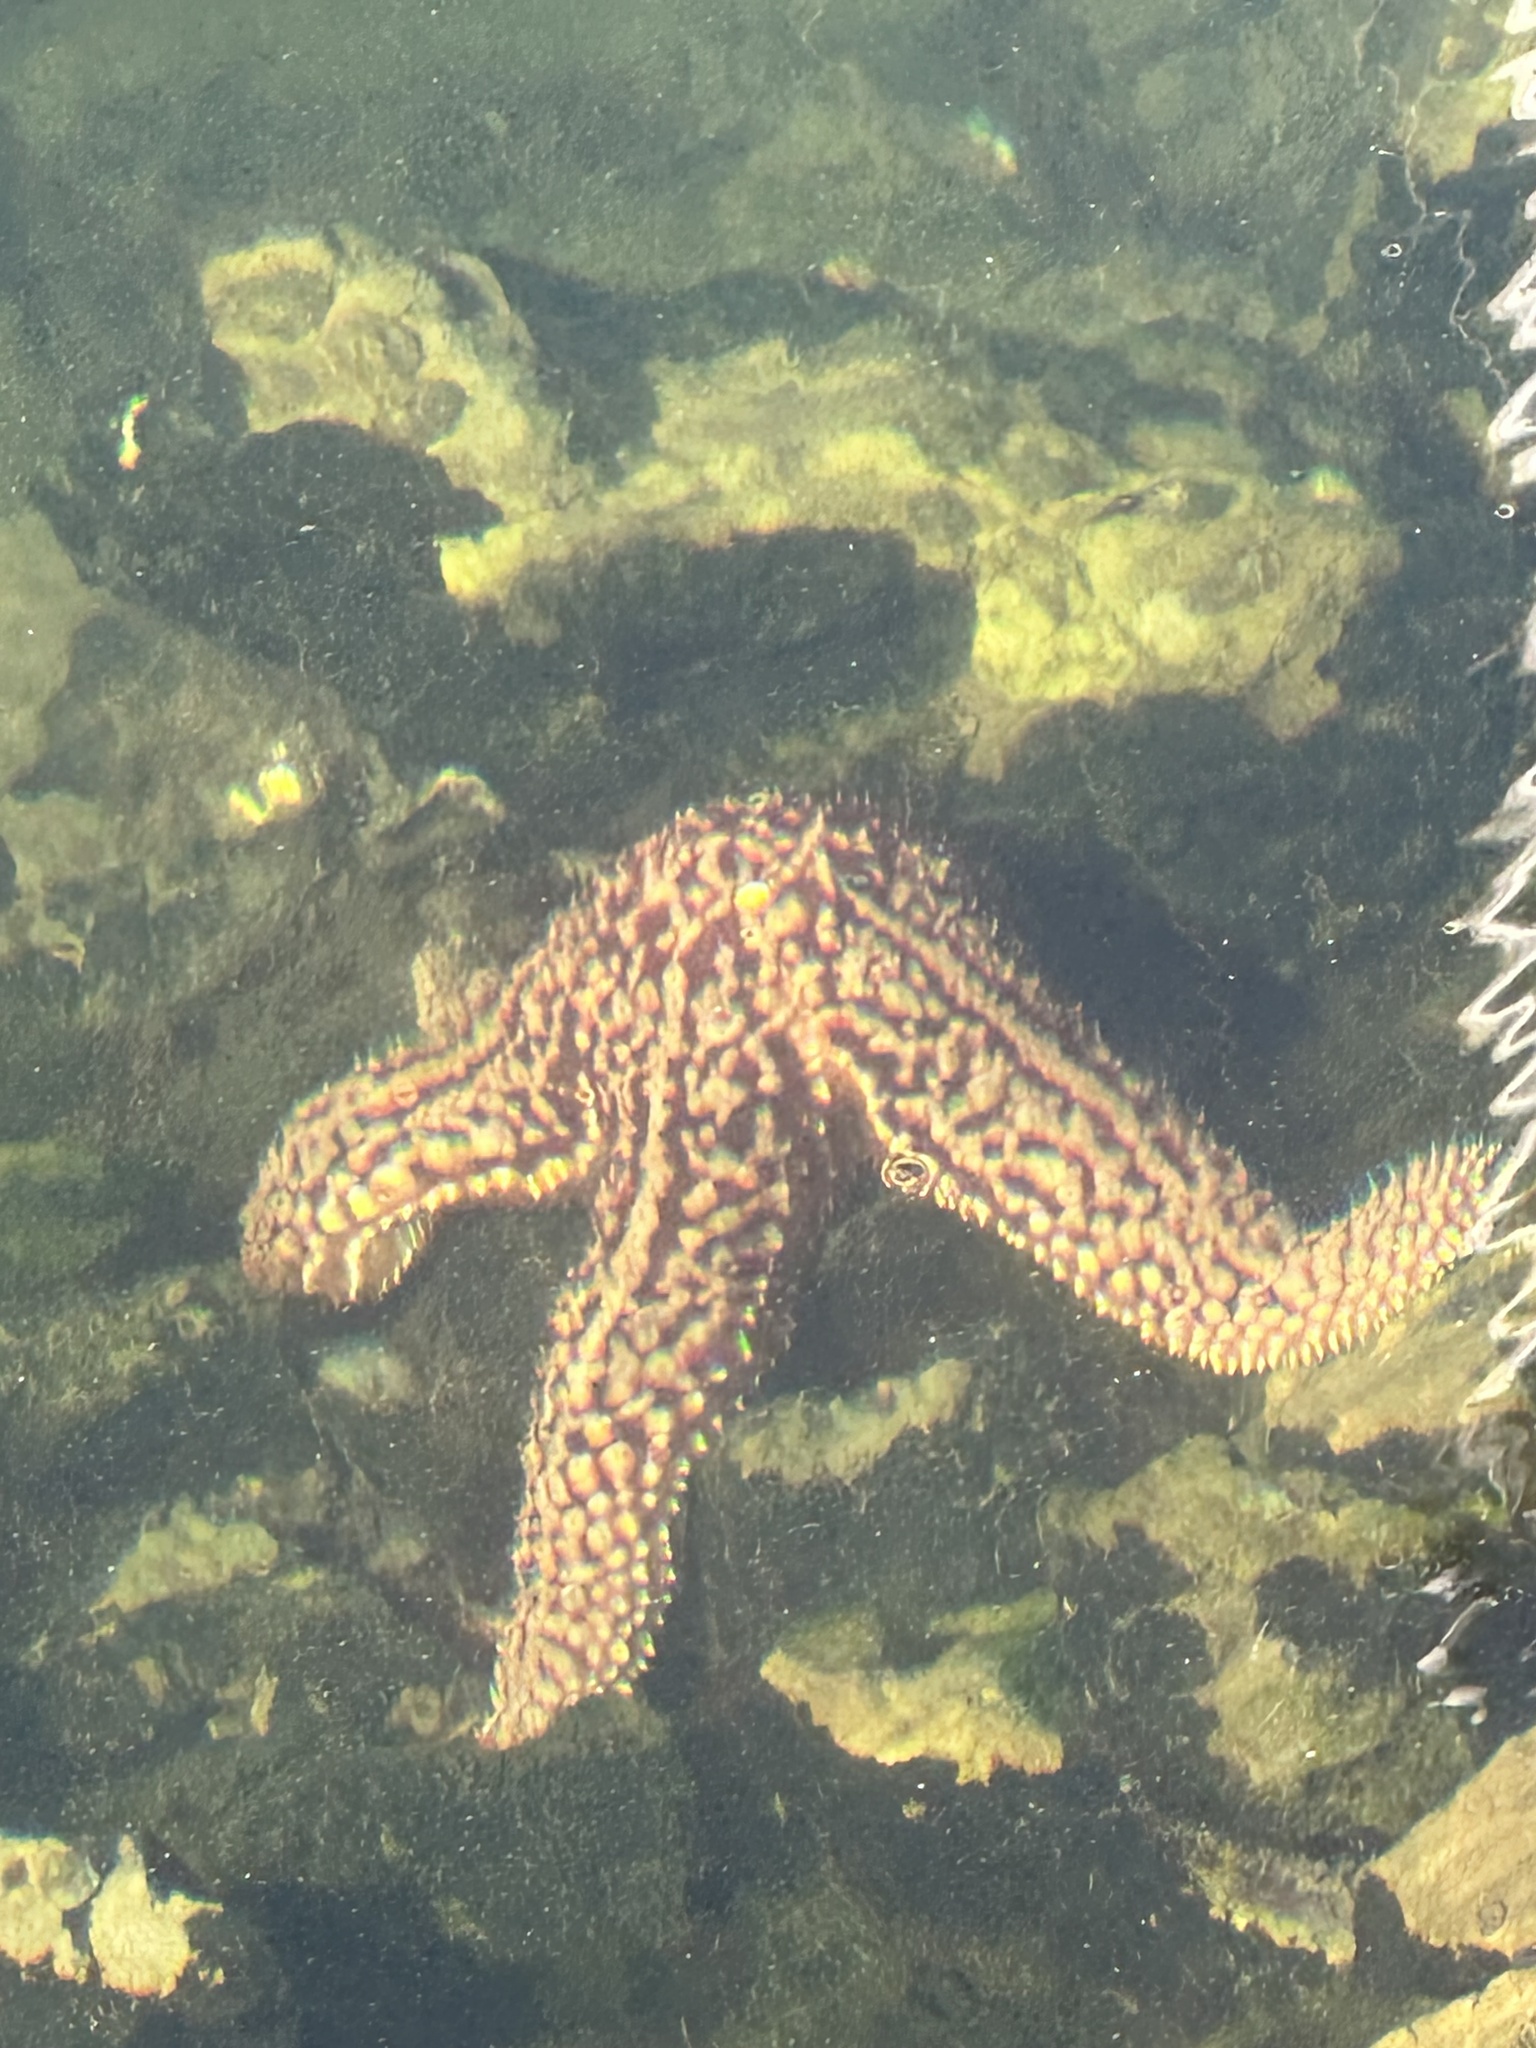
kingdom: Animalia
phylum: Echinodermata
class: Asteroidea
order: Forcipulatida
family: Asteriidae
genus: Pisaster
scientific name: Pisaster giganteus
